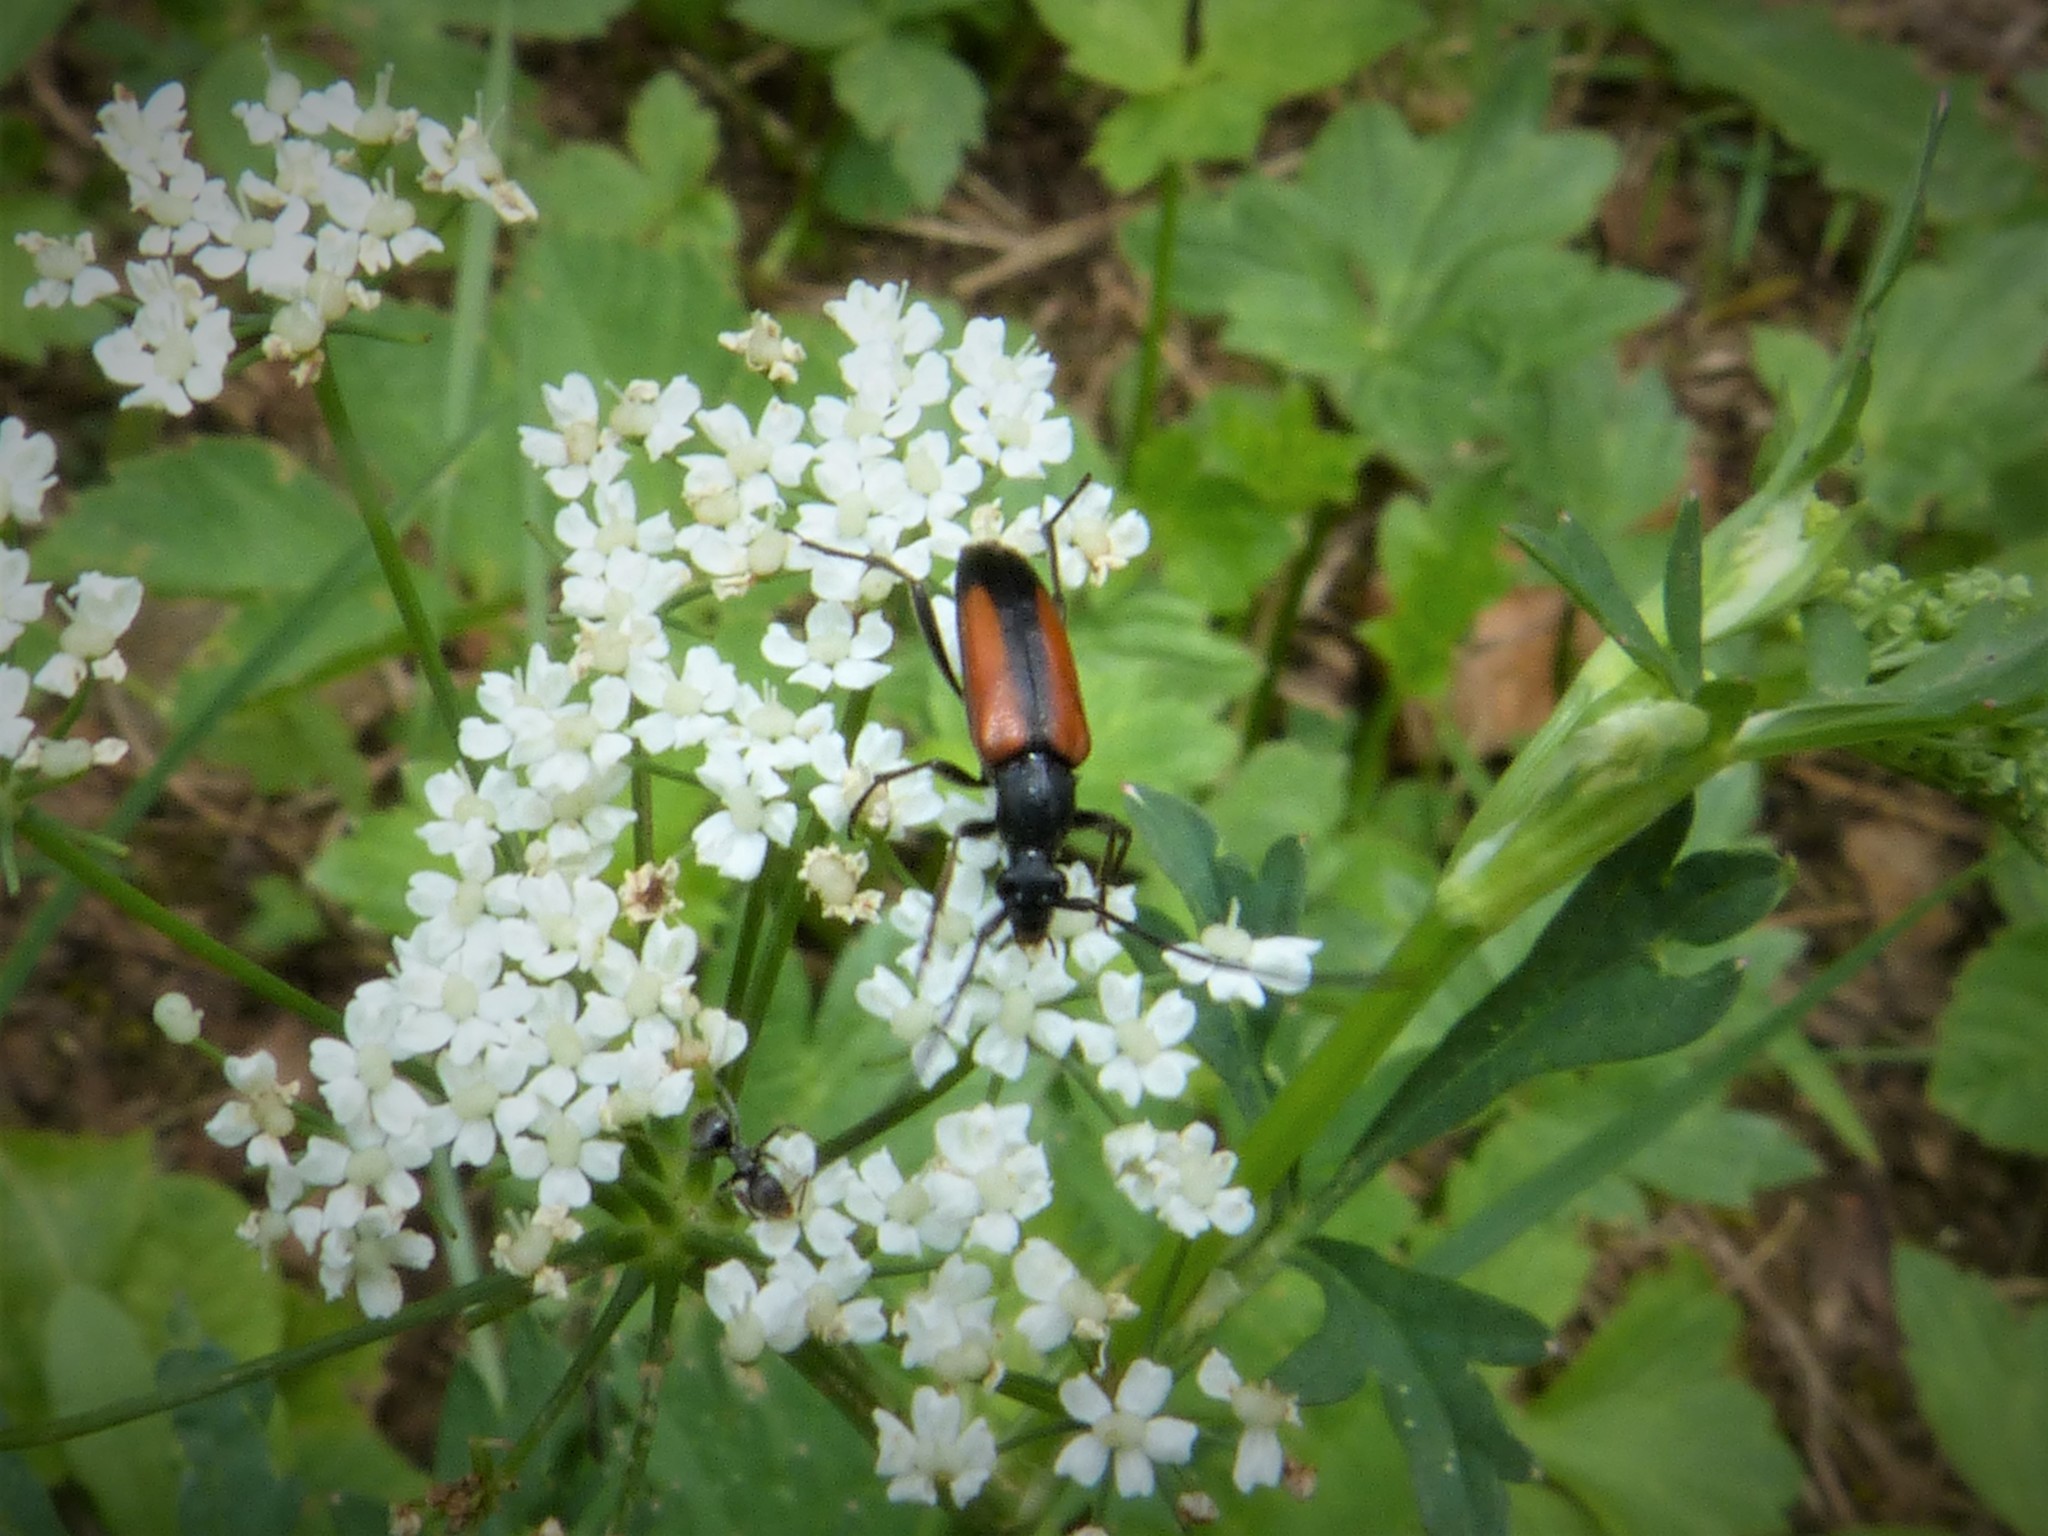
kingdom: Animalia
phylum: Arthropoda
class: Insecta
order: Coleoptera
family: Cerambycidae
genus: Stenurella
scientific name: Stenurella melanura
